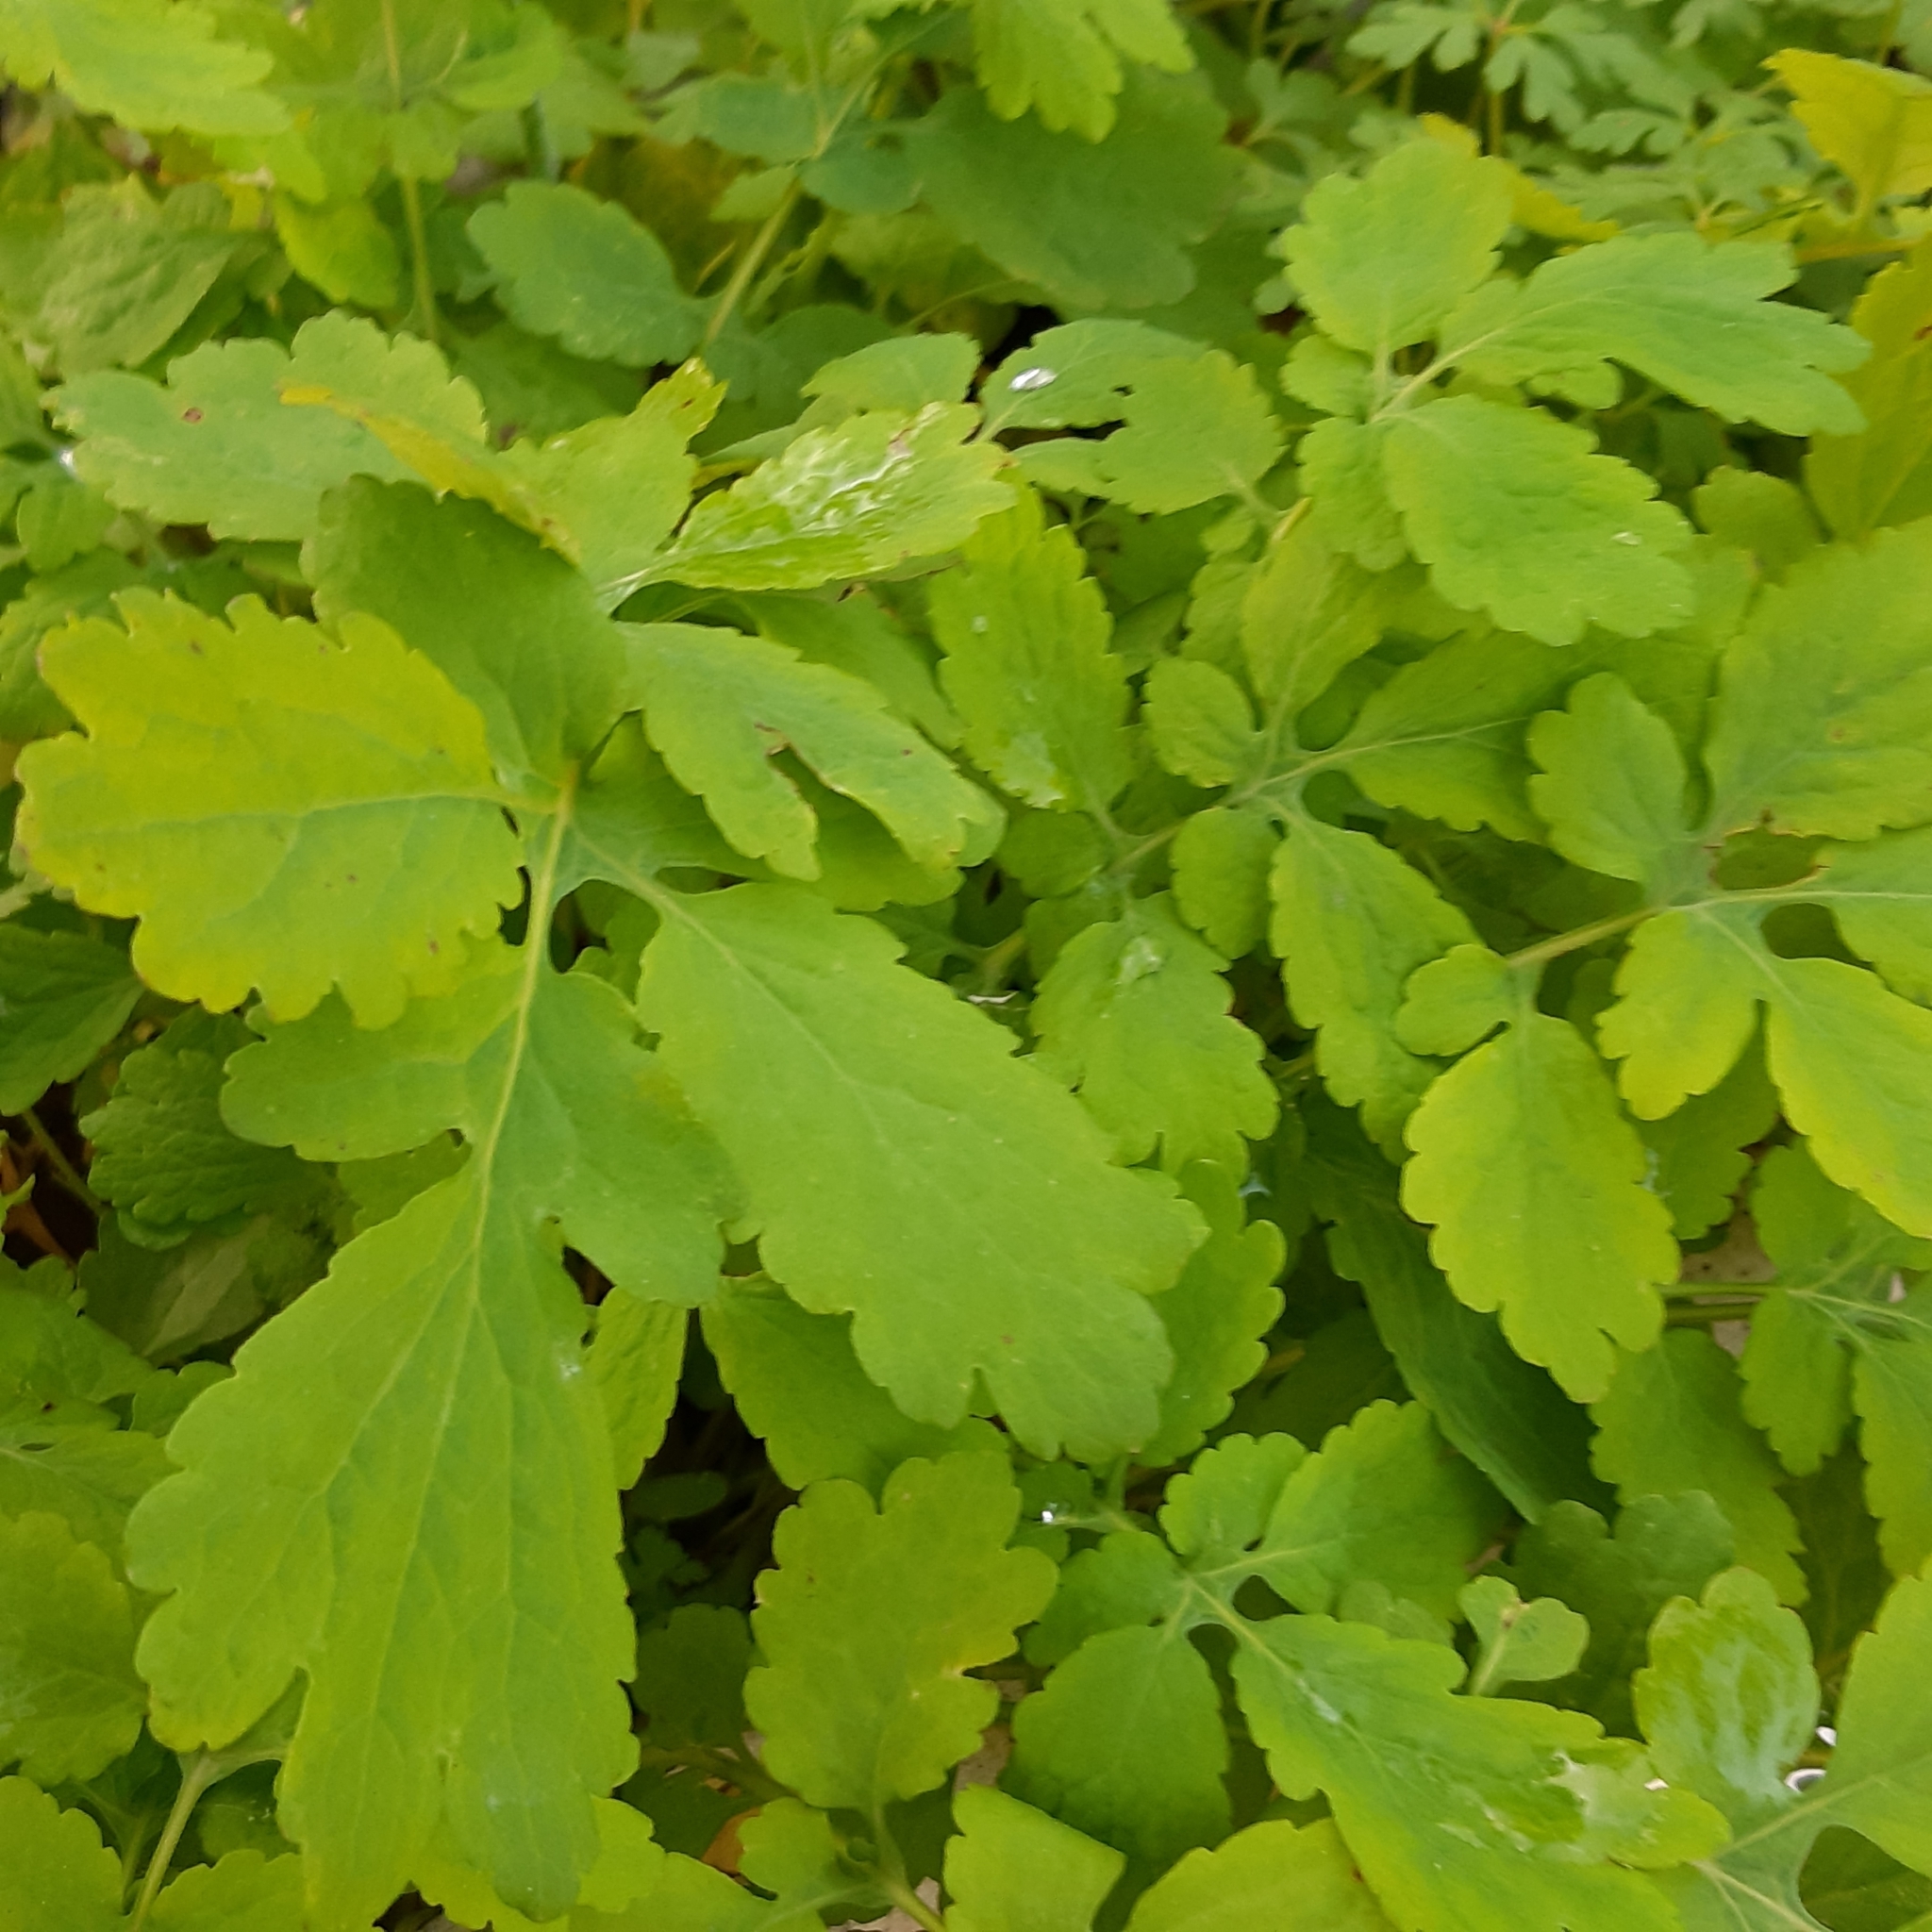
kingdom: Plantae
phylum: Tracheophyta
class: Magnoliopsida
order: Ranunculales
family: Papaveraceae
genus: Chelidonium
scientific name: Chelidonium majus
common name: Greater celandine
